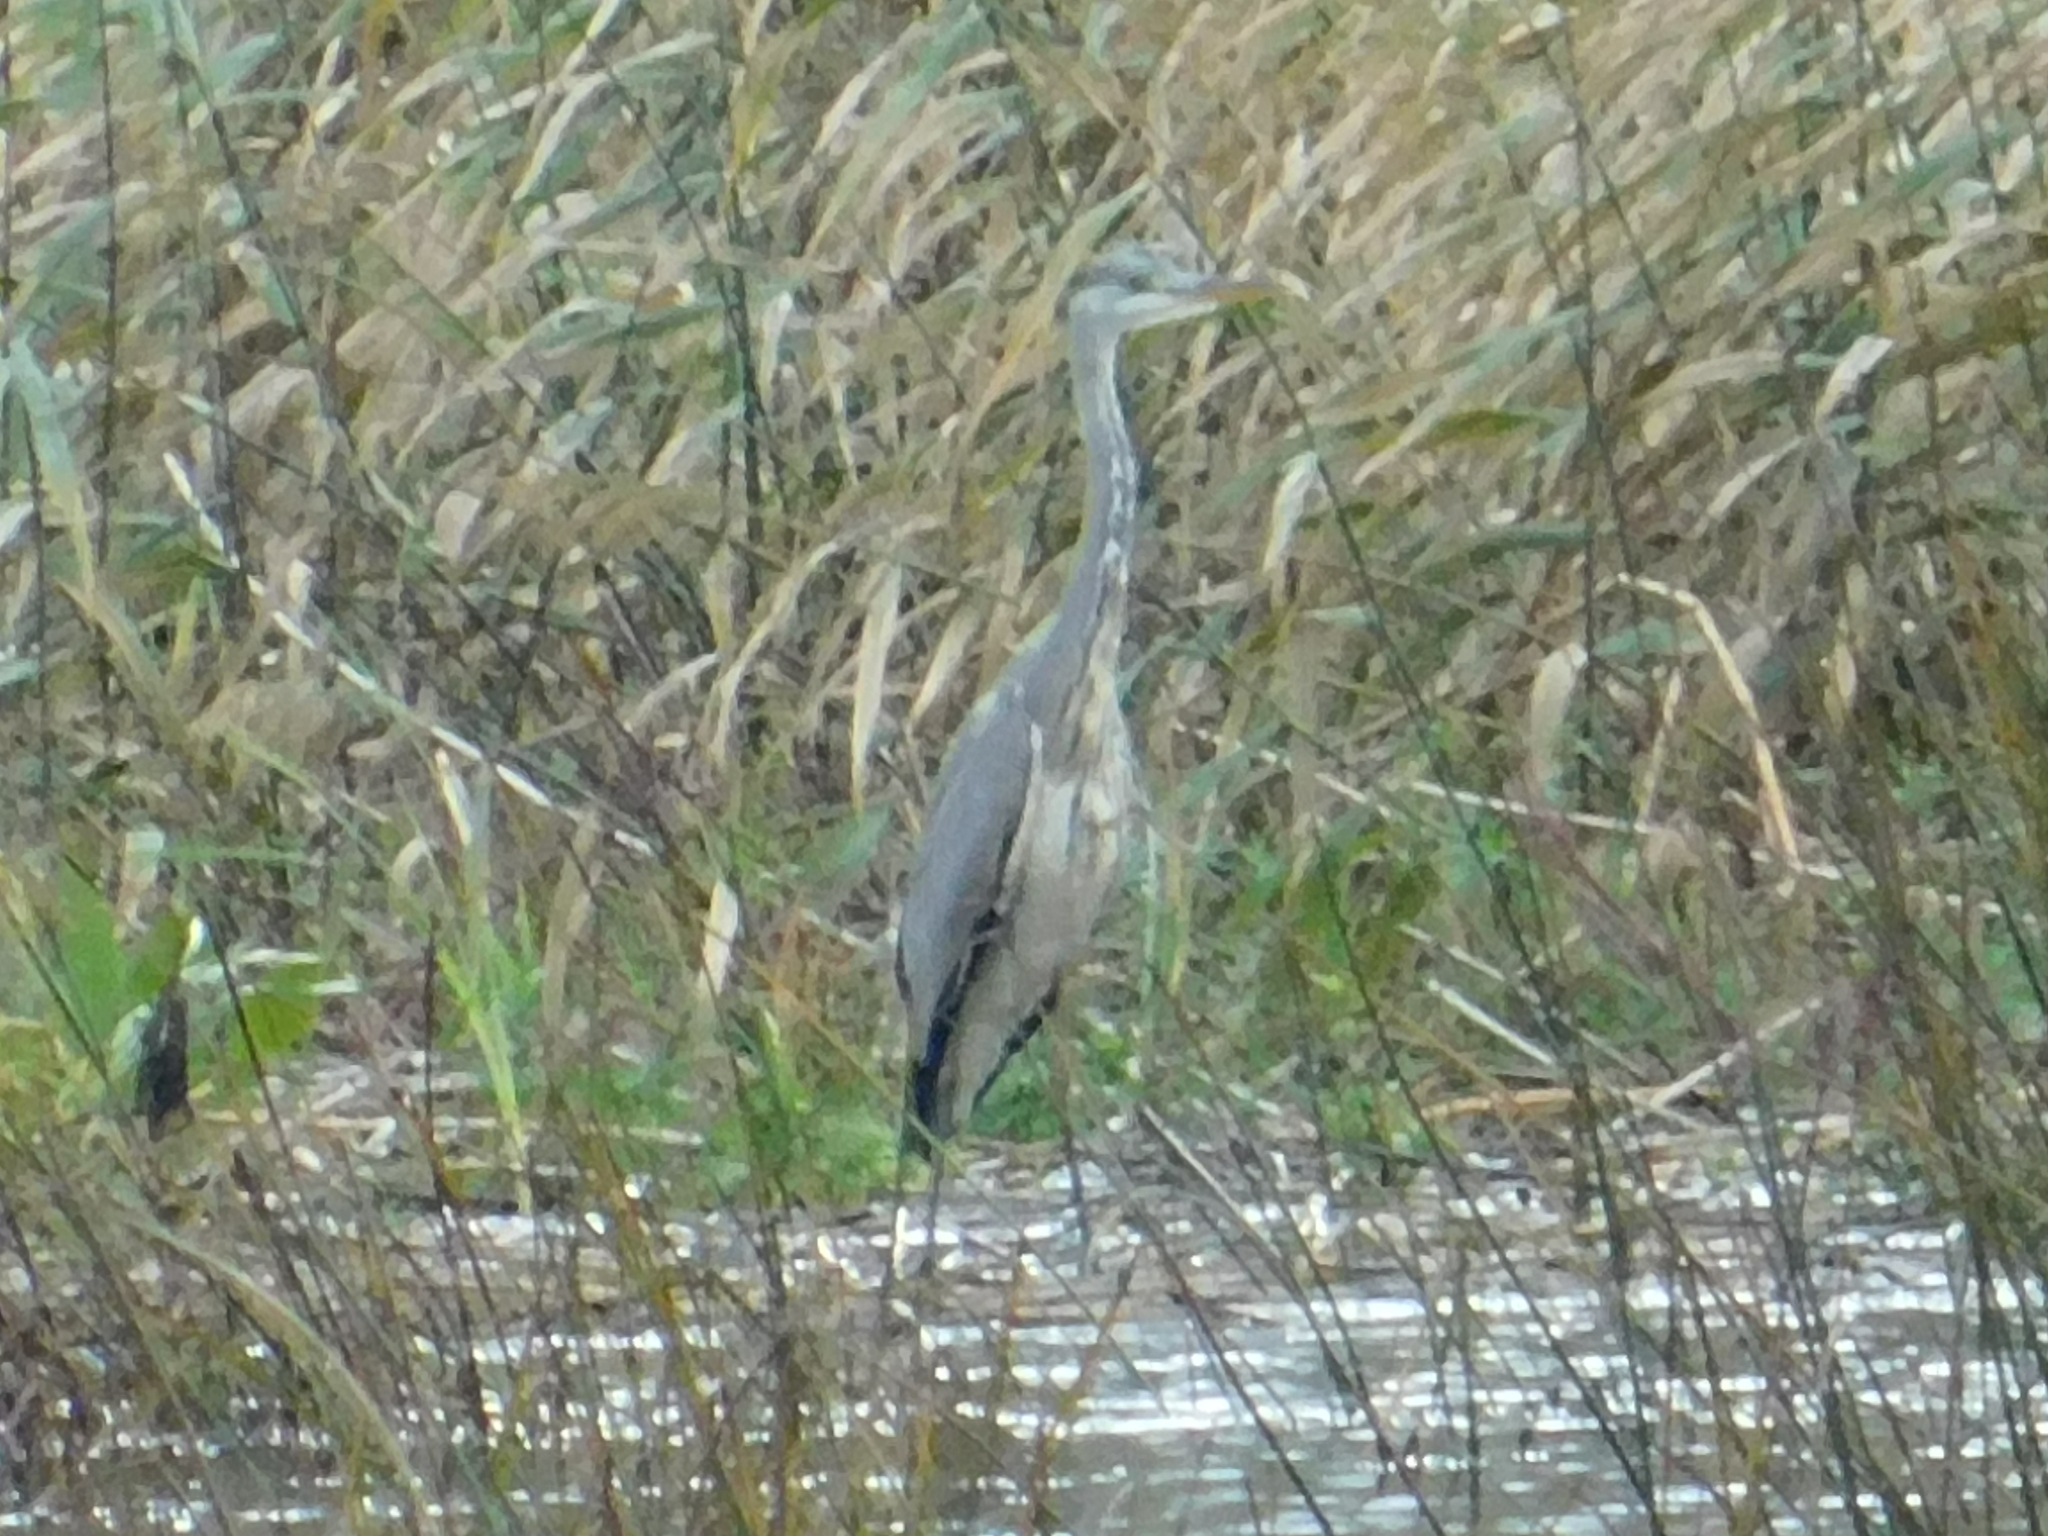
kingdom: Animalia
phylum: Chordata
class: Aves
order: Pelecaniformes
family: Ardeidae
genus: Ardea
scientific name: Ardea cinerea
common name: Grey heron
